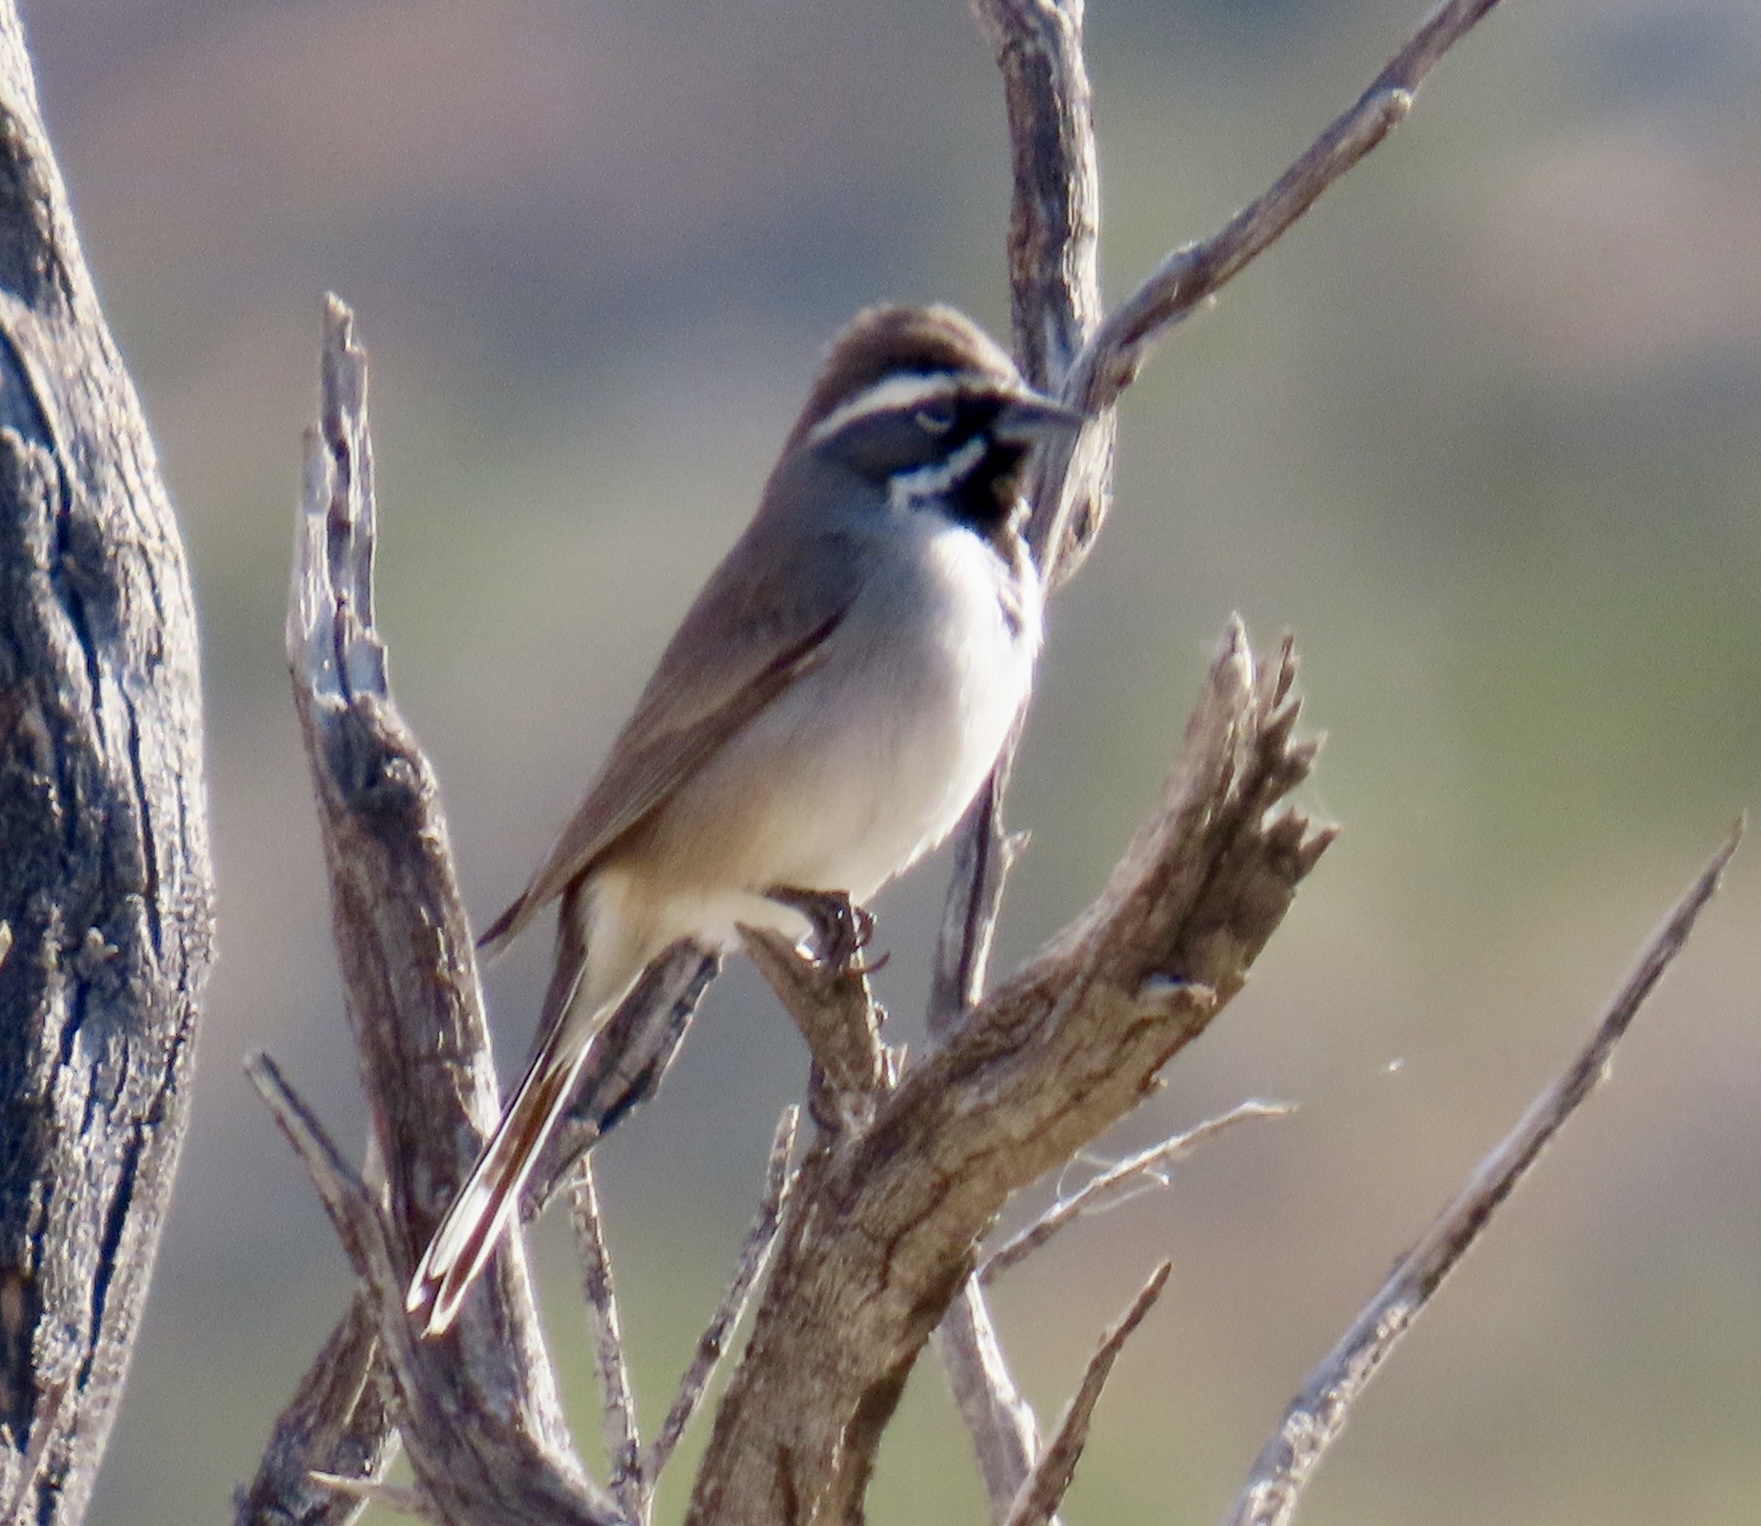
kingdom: Animalia
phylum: Chordata
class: Aves
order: Passeriformes
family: Passerellidae
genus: Amphispiza
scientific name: Amphispiza bilineata
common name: Black-throated sparrow
